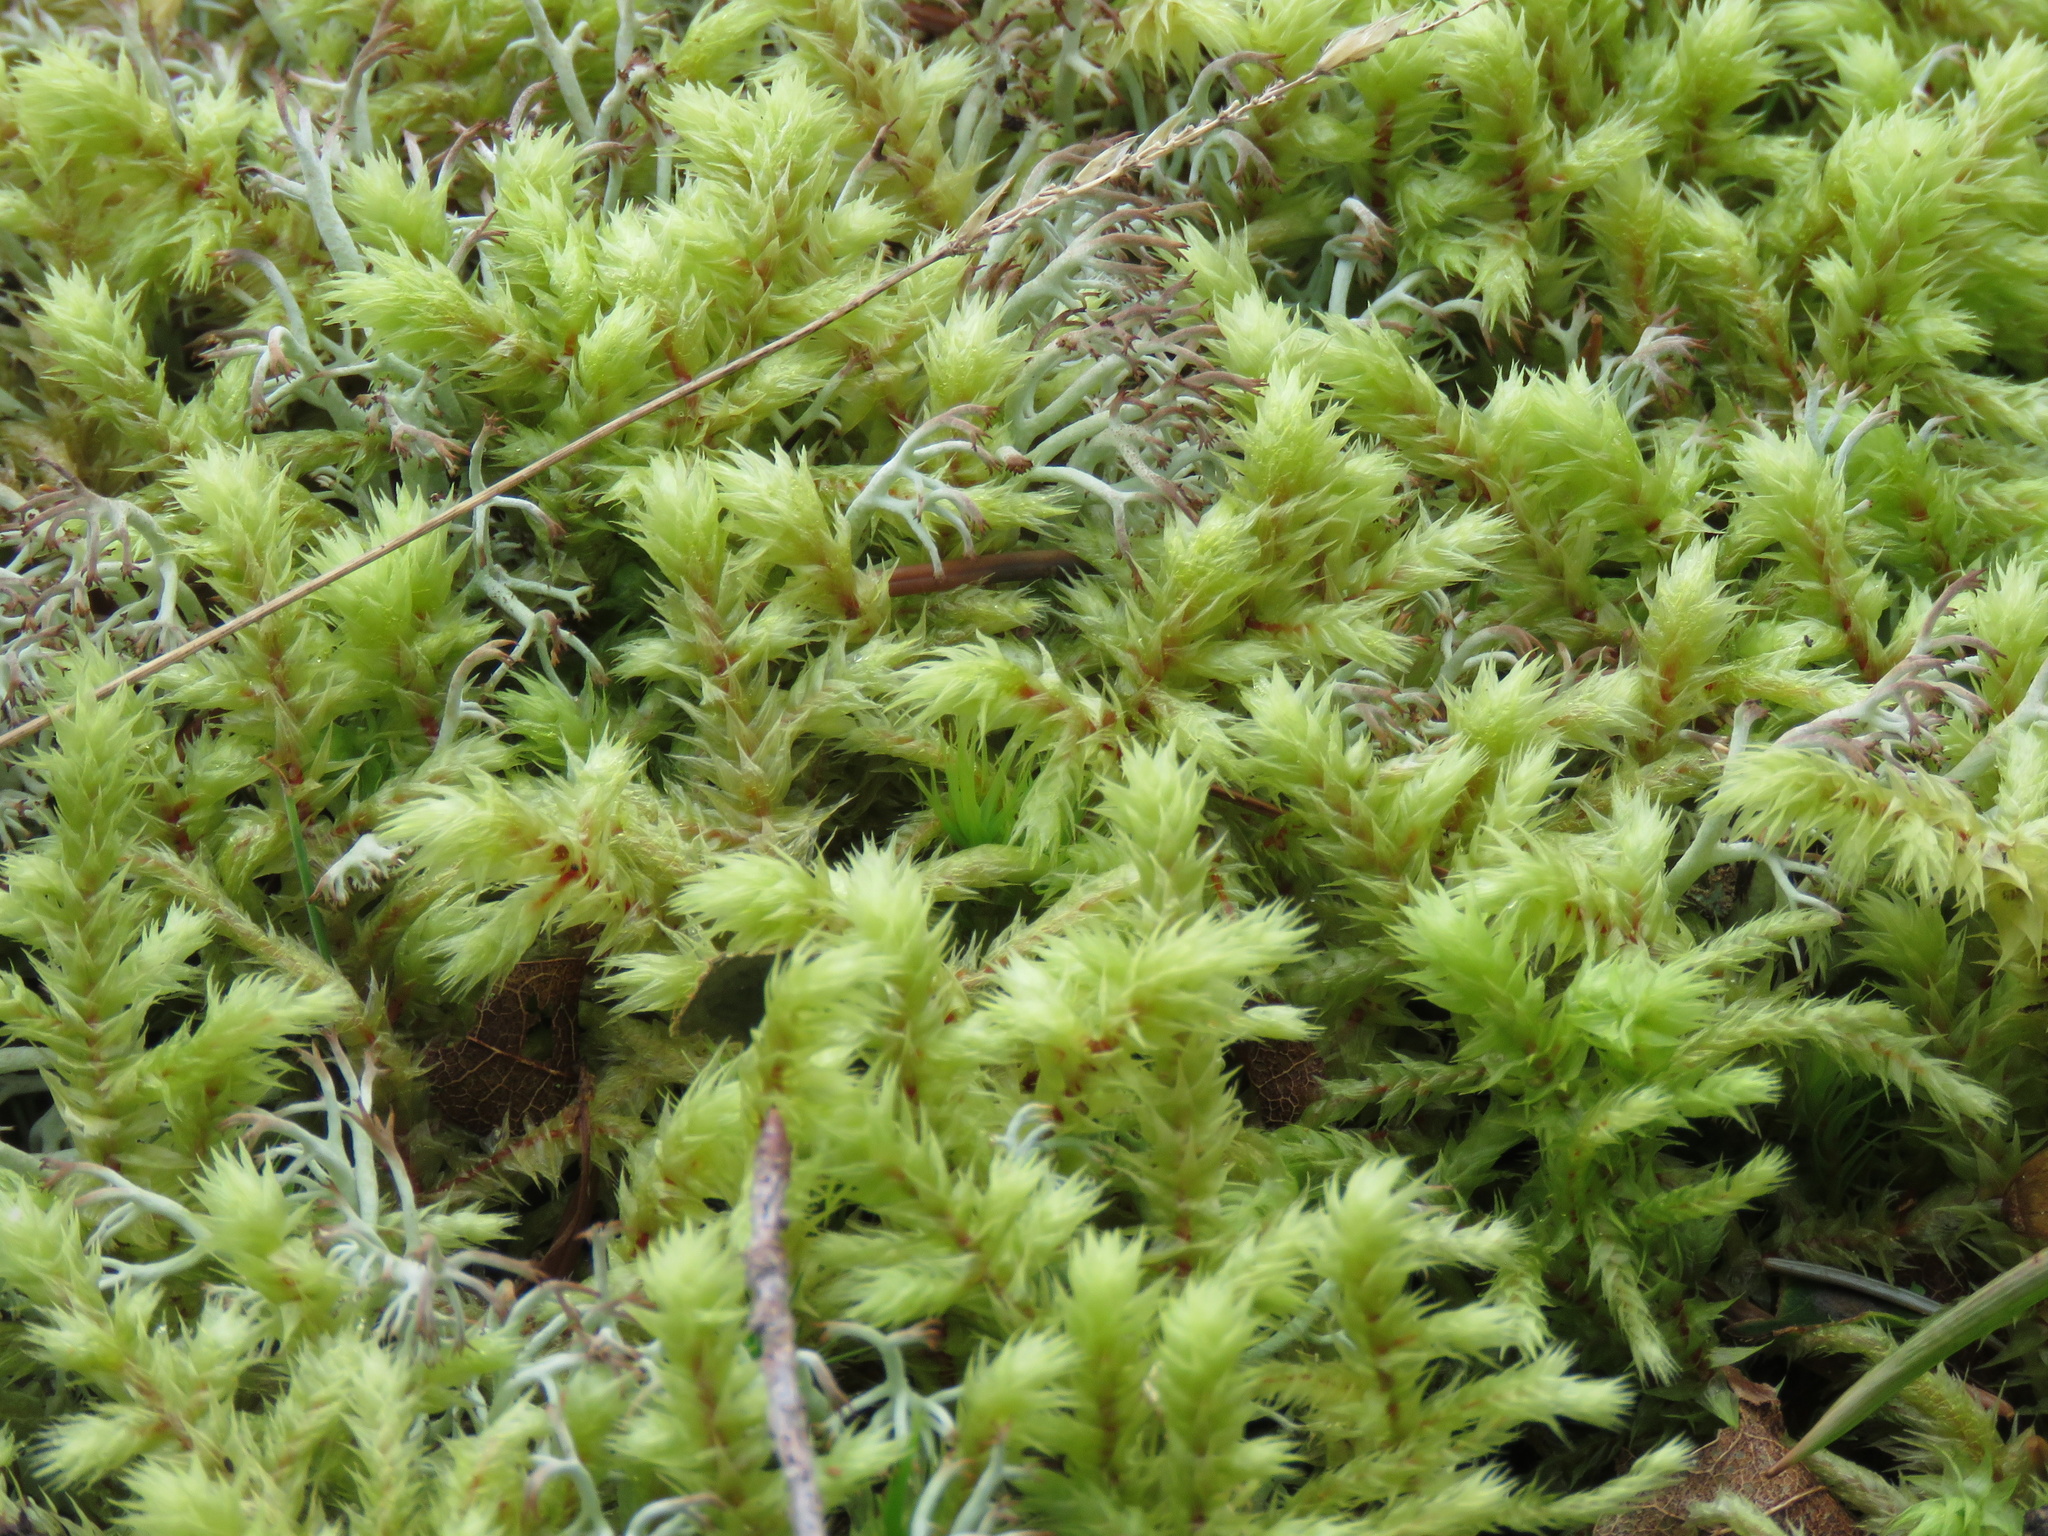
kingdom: Plantae
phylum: Bryophyta
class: Bryopsida
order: Hypnales
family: Hylocomiaceae
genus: Hylocomiadelphus
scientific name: Hylocomiadelphus triquetrus
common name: Rough goose neck moss
